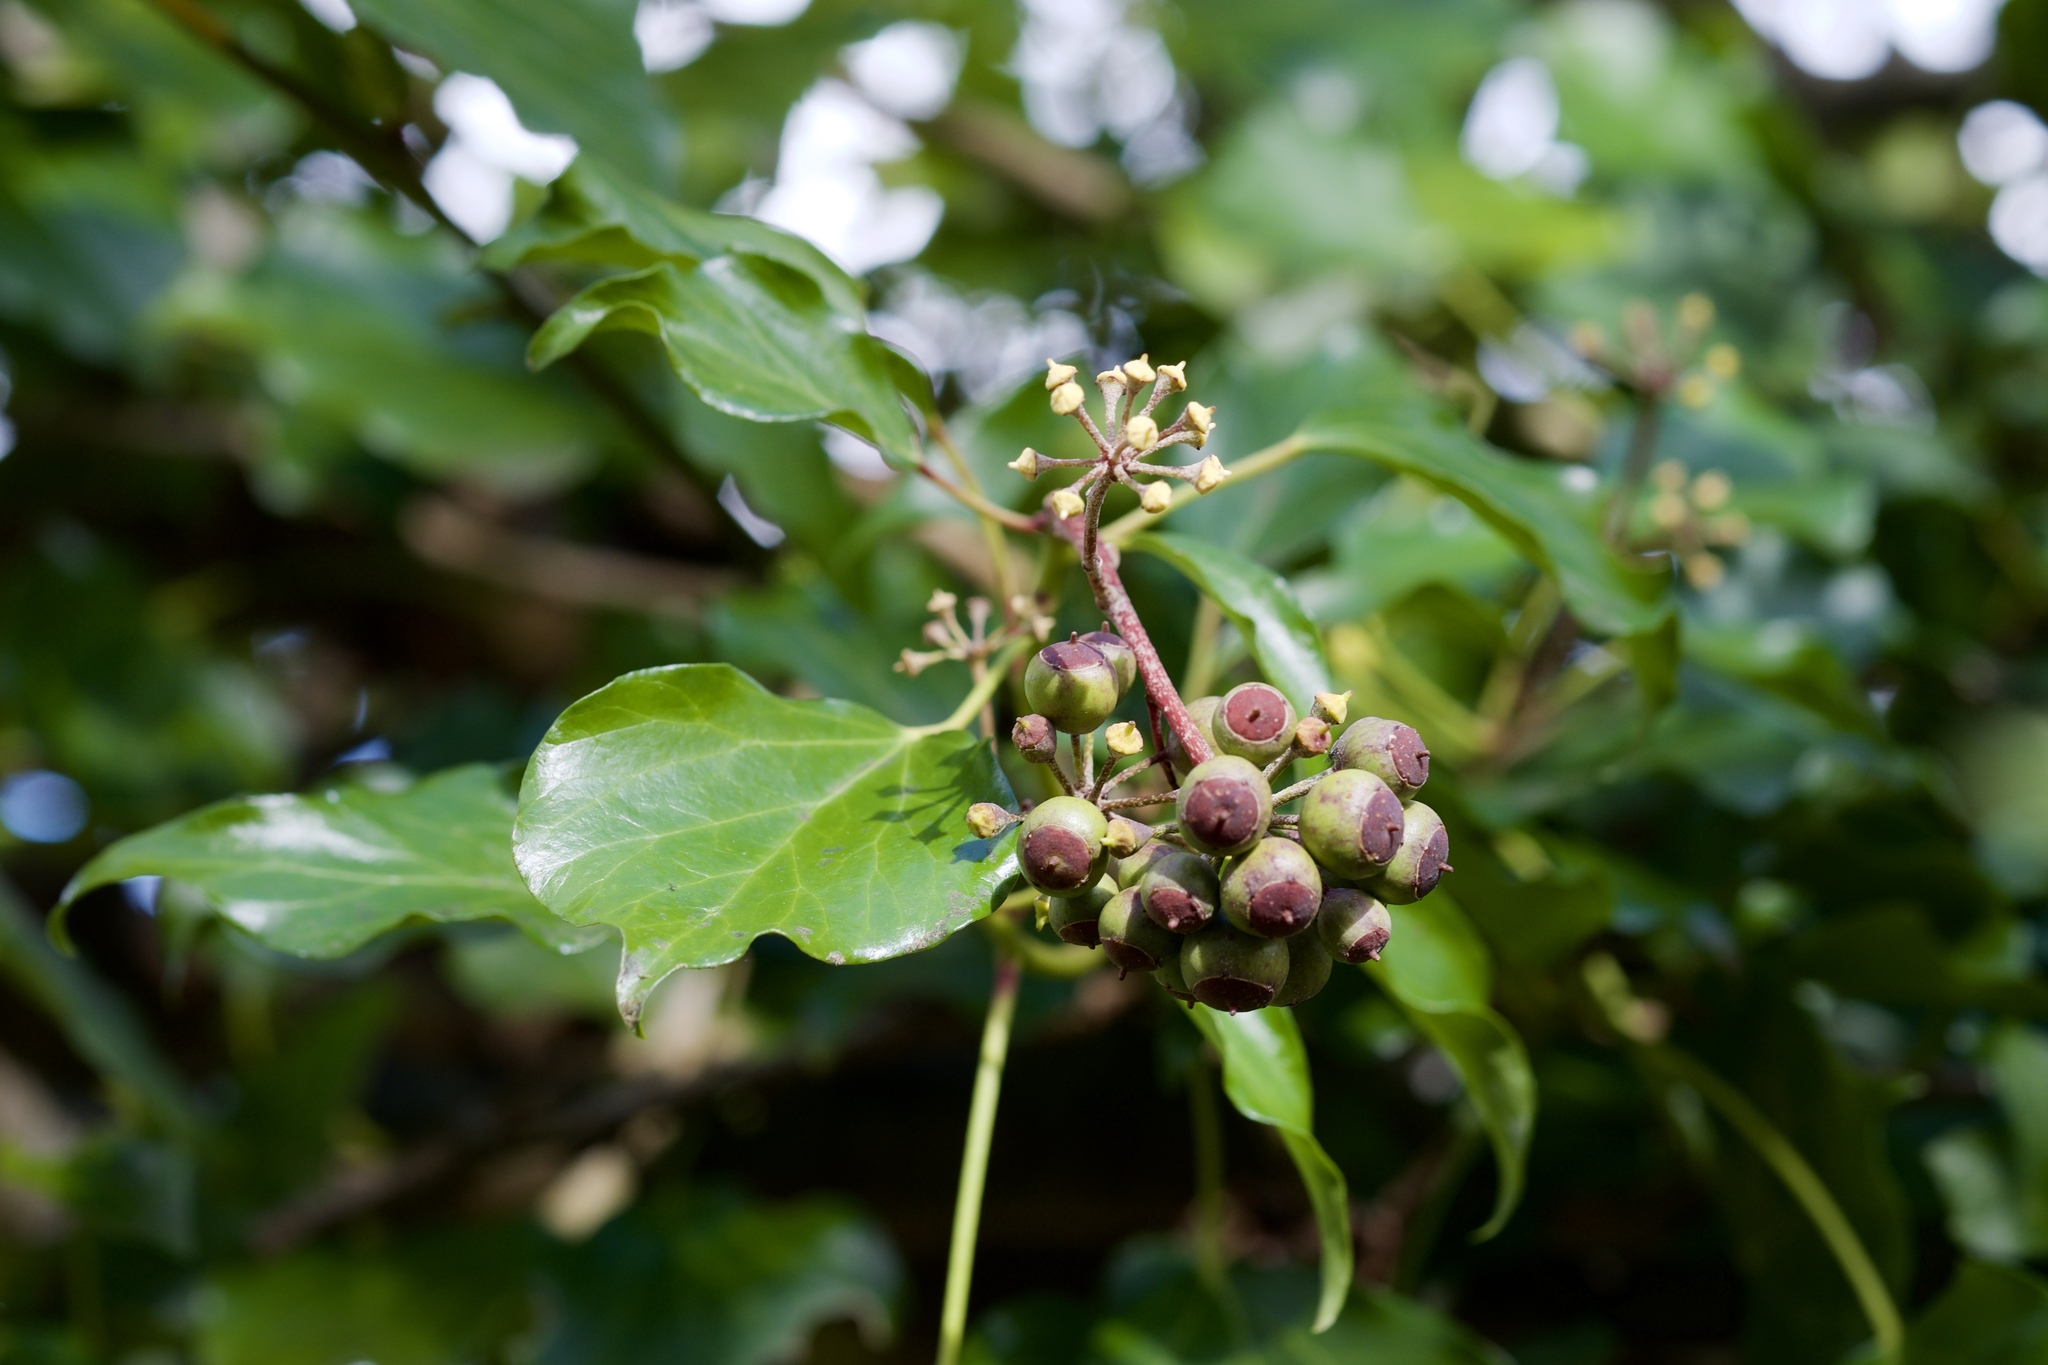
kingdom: Plantae
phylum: Tracheophyta
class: Magnoliopsida
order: Apiales
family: Araliaceae
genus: Hedera
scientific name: Hedera helix
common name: Ivy
